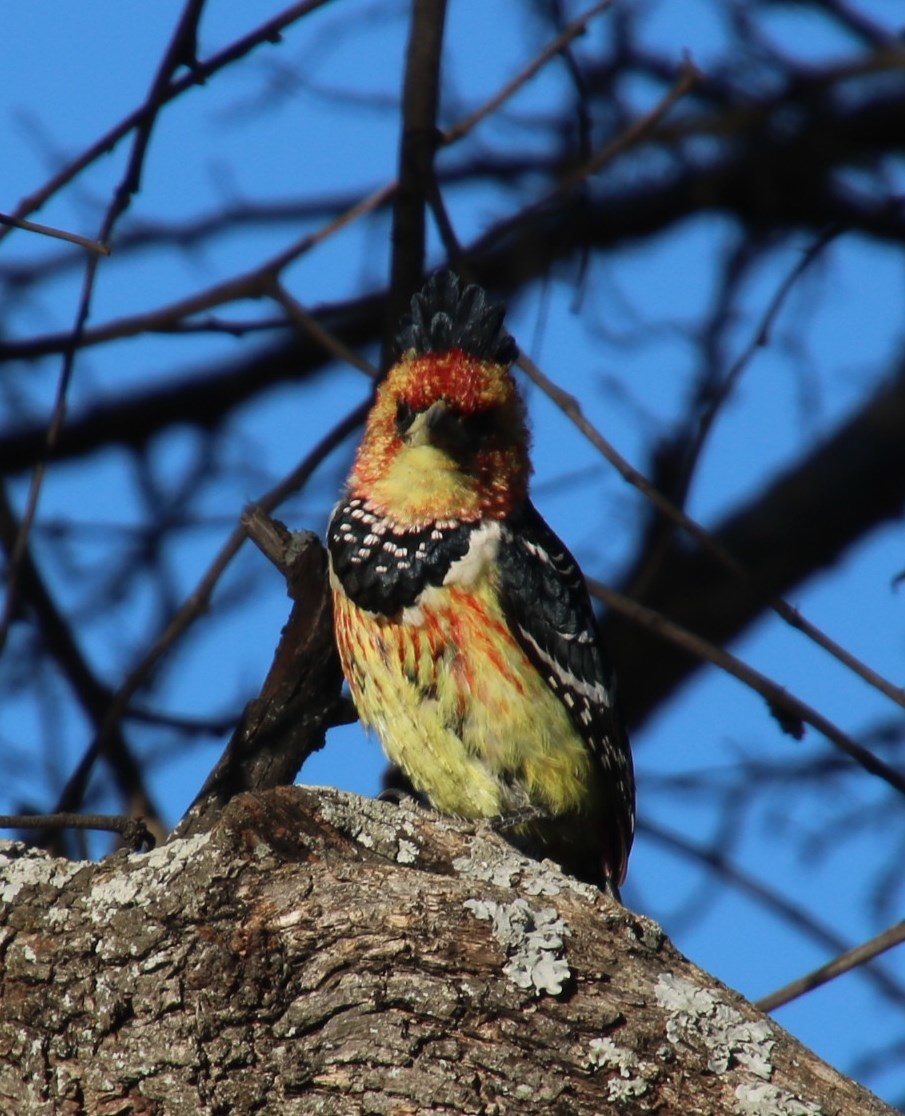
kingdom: Animalia
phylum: Chordata
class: Aves
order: Piciformes
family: Lybiidae
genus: Trachyphonus
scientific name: Trachyphonus vaillantii
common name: Crested barbet
